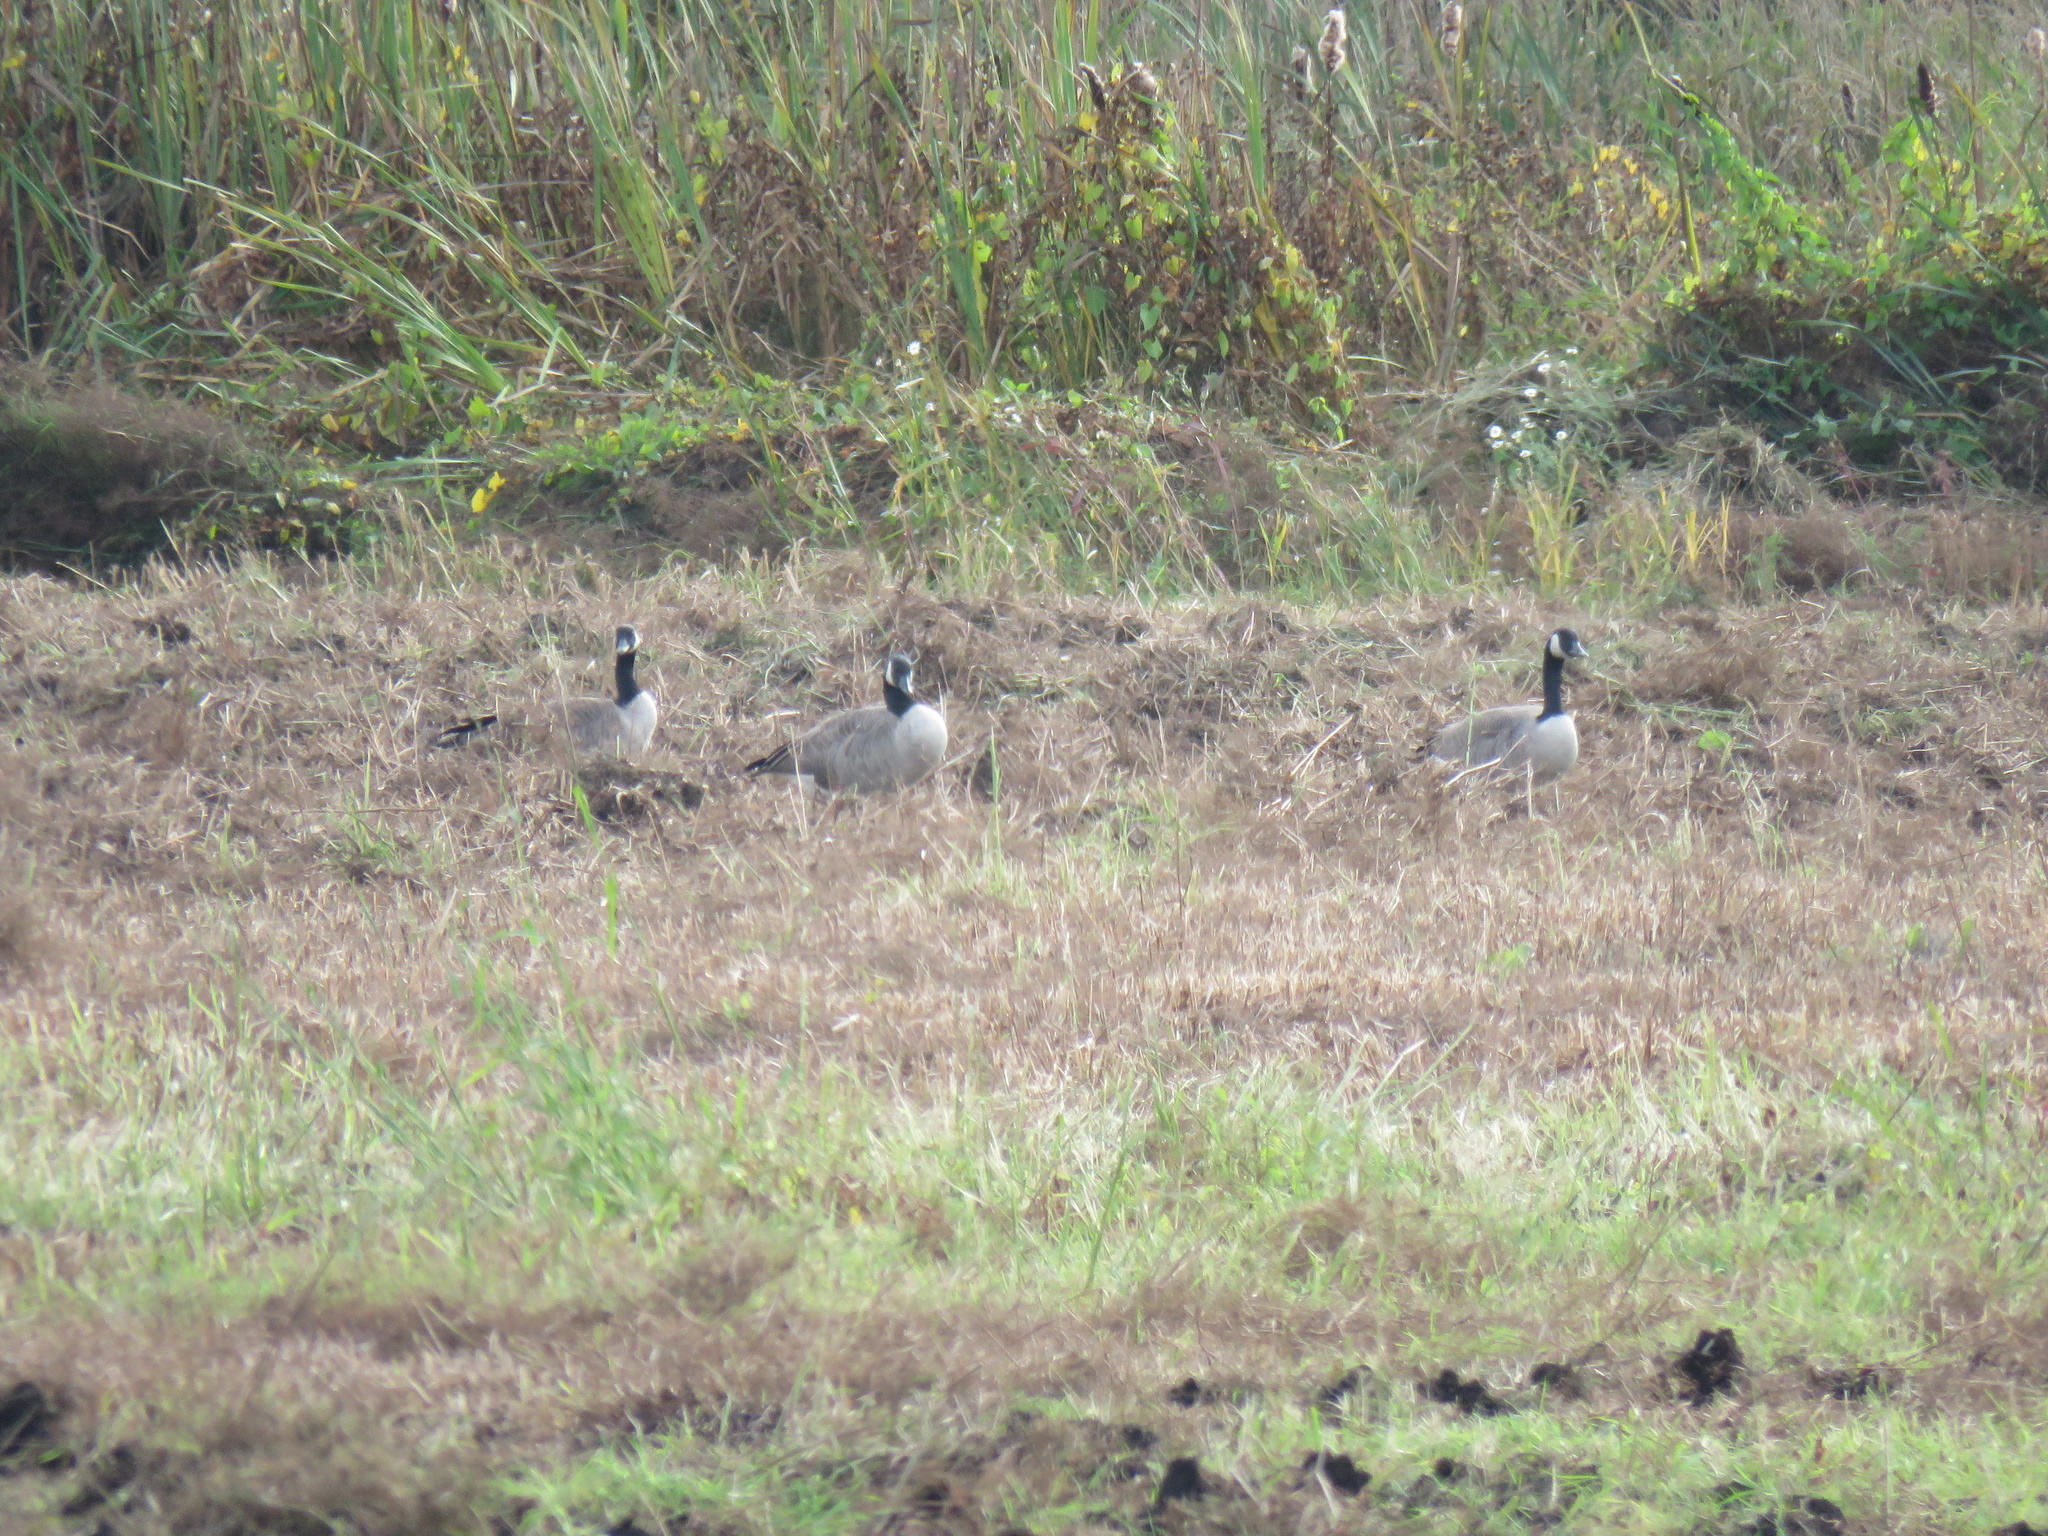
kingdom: Animalia
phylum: Chordata
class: Aves
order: Anseriformes
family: Anatidae
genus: Branta
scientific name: Branta canadensis
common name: Canada goose
